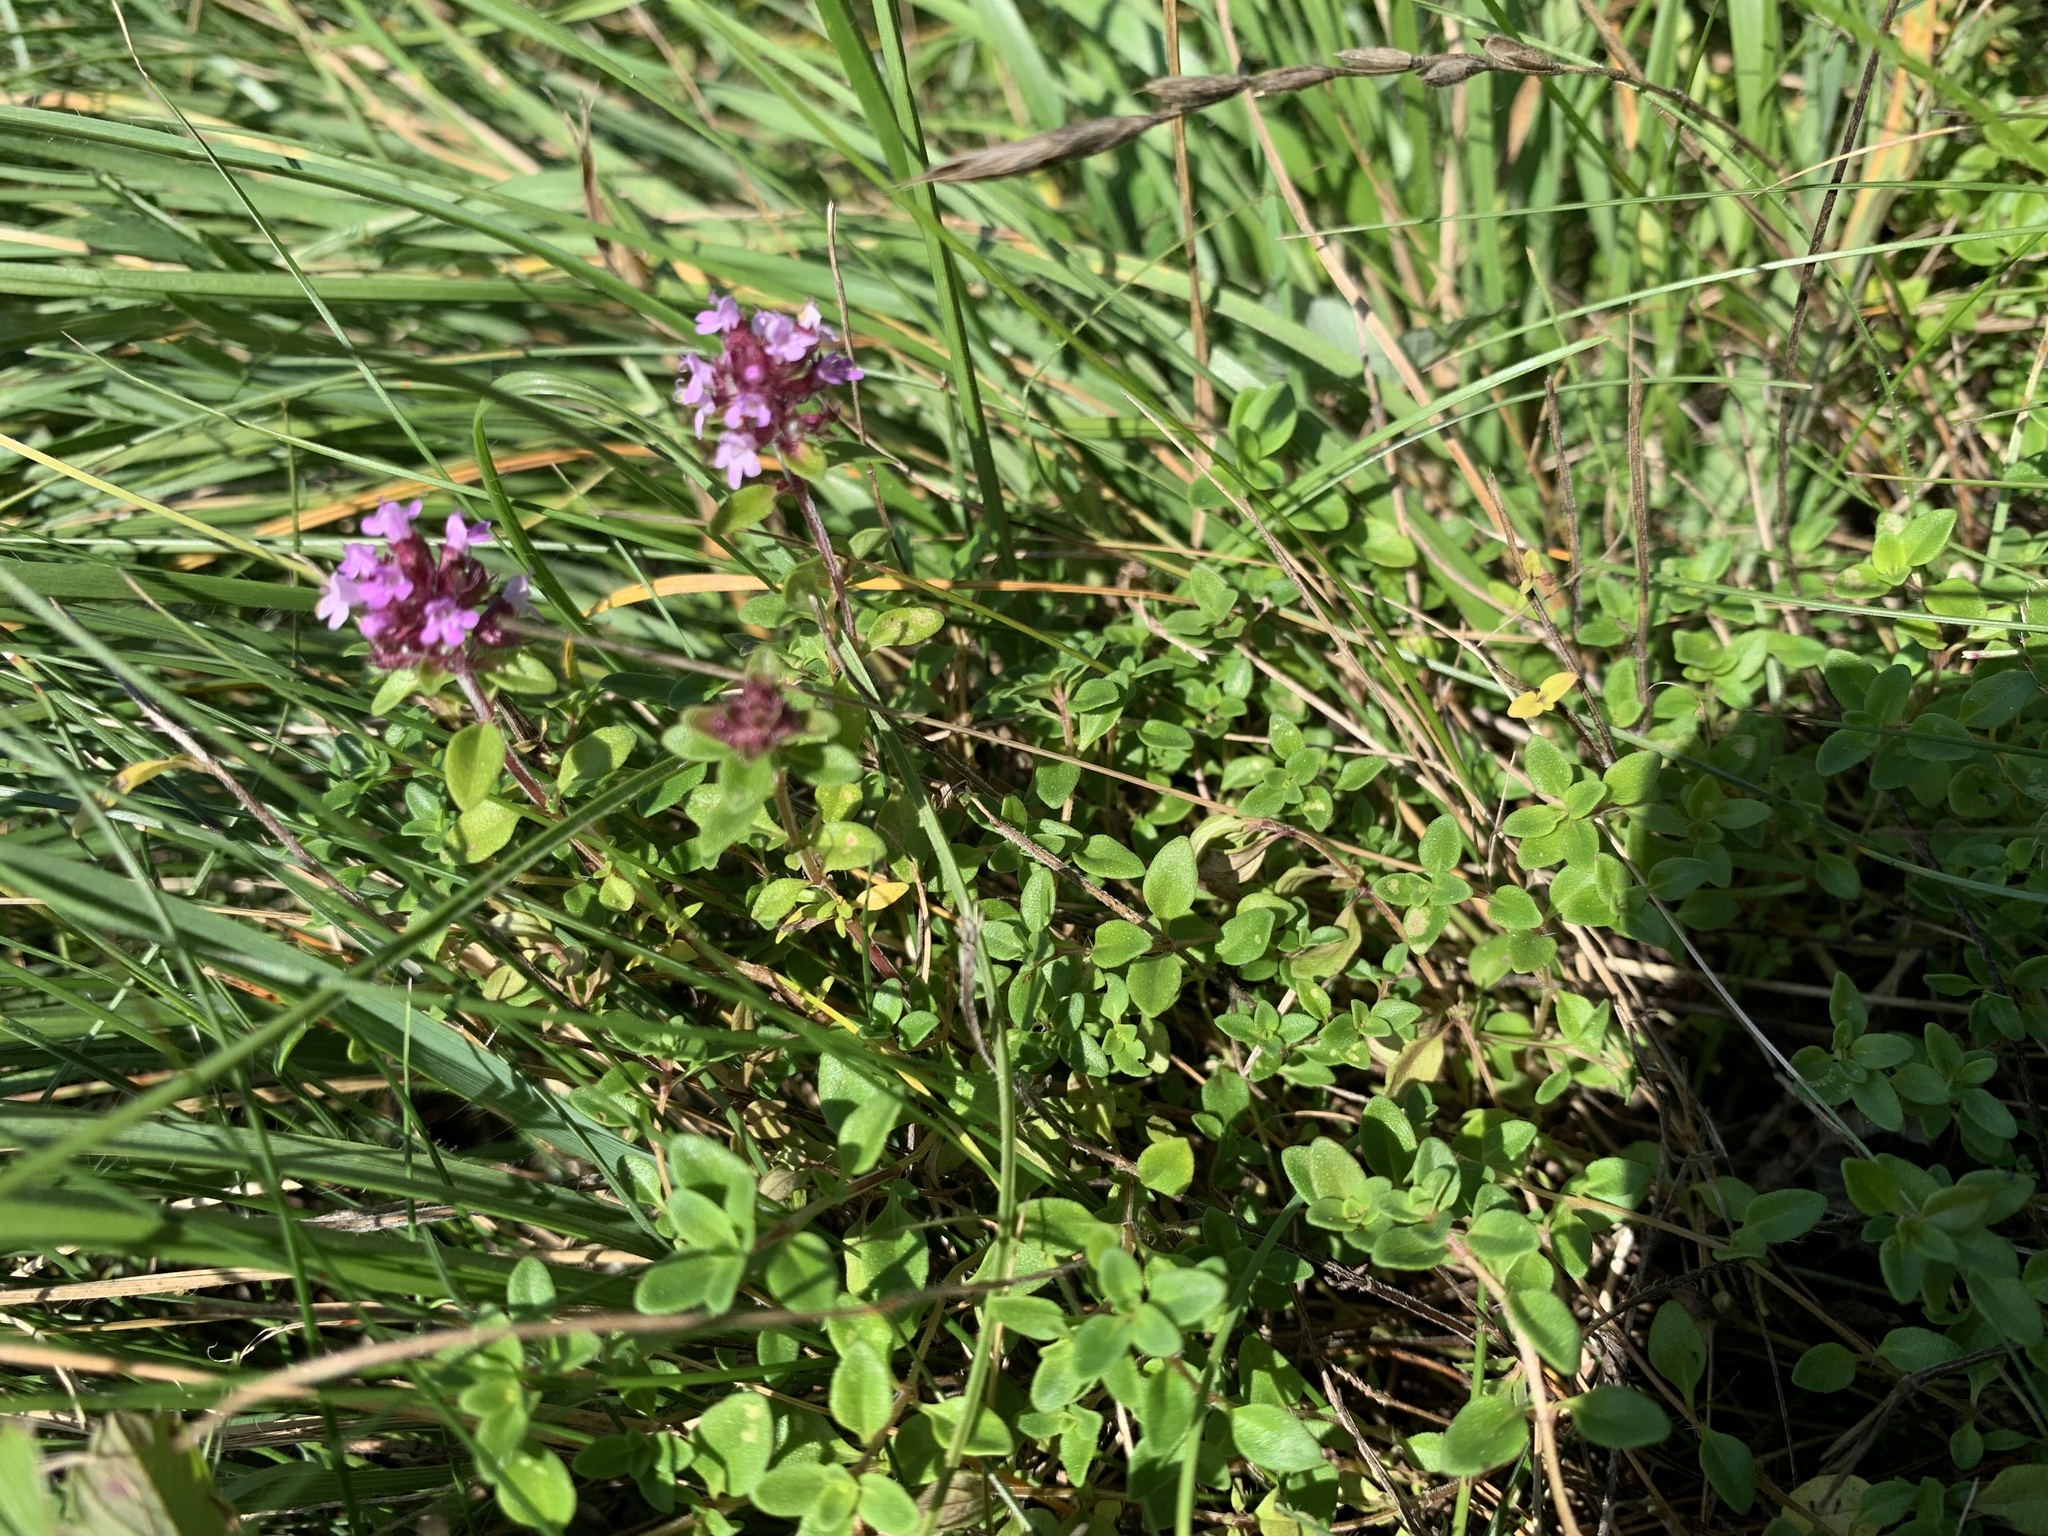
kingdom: Plantae
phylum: Tracheophyta
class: Magnoliopsida
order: Lamiales
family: Lamiaceae
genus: Thymus
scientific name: Thymus pulegioides
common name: Large thyme
